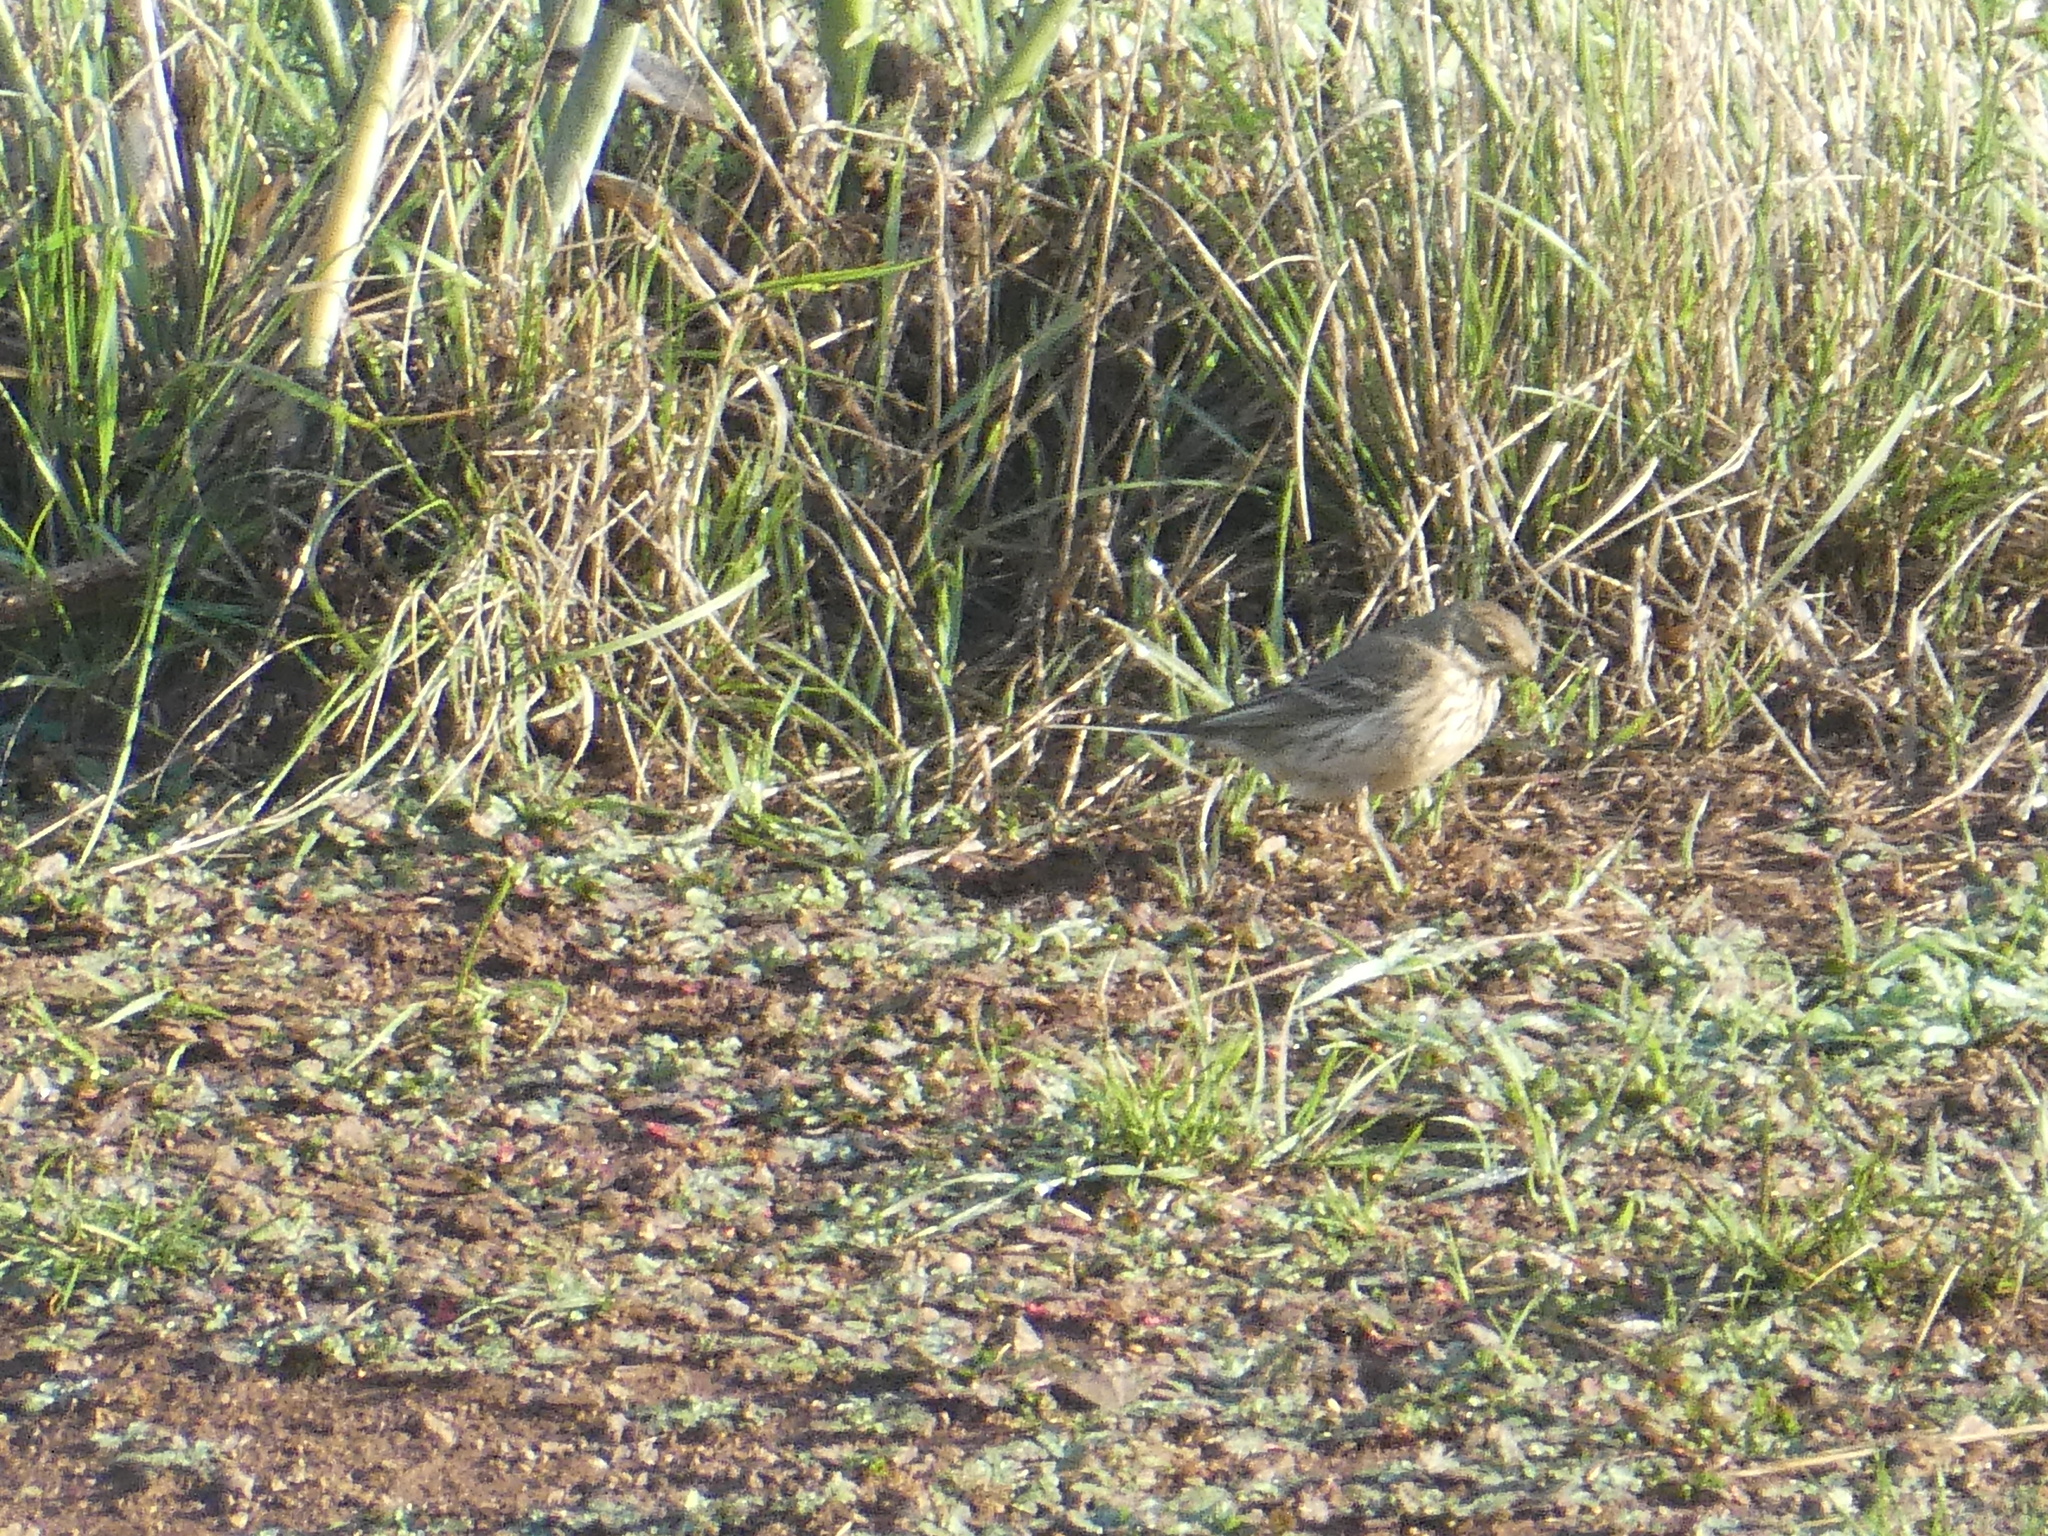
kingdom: Animalia
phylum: Chordata
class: Aves
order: Passeriformes
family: Motacillidae
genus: Anthus
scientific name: Anthus rubescens
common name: Buff-bellied pipit
